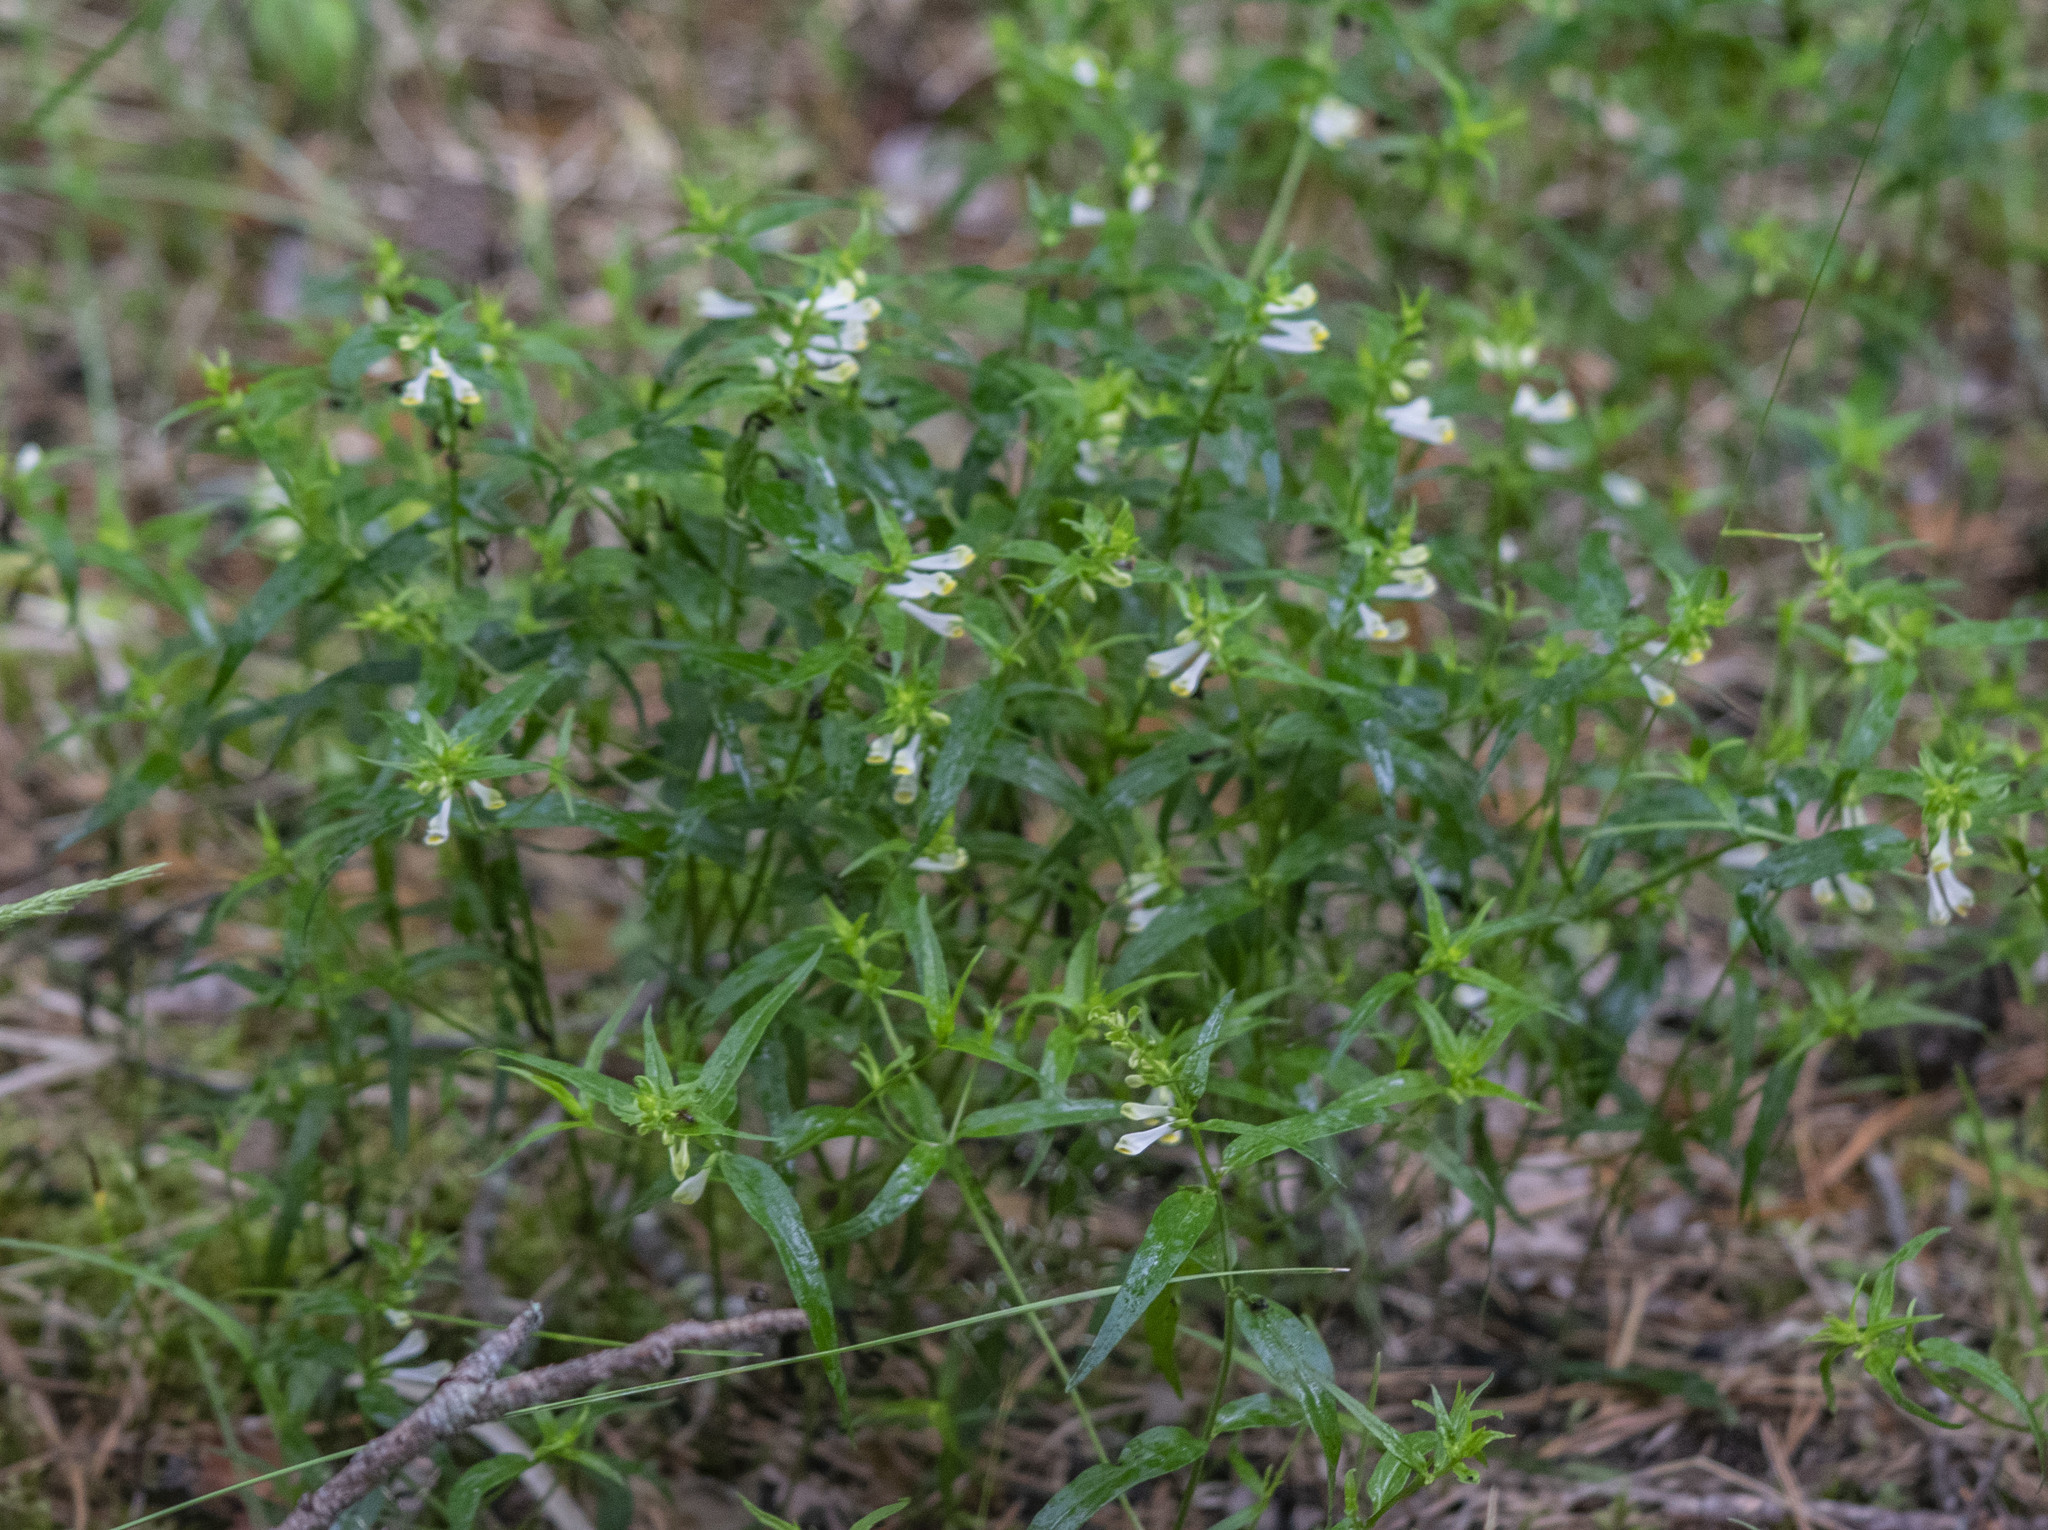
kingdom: Plantae
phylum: Tracheophyta
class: Magnoliopsida
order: Lamiales
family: Orobanchaceae
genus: Melampyrum
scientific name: Melampyrum pratense
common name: Common cow-wheat
